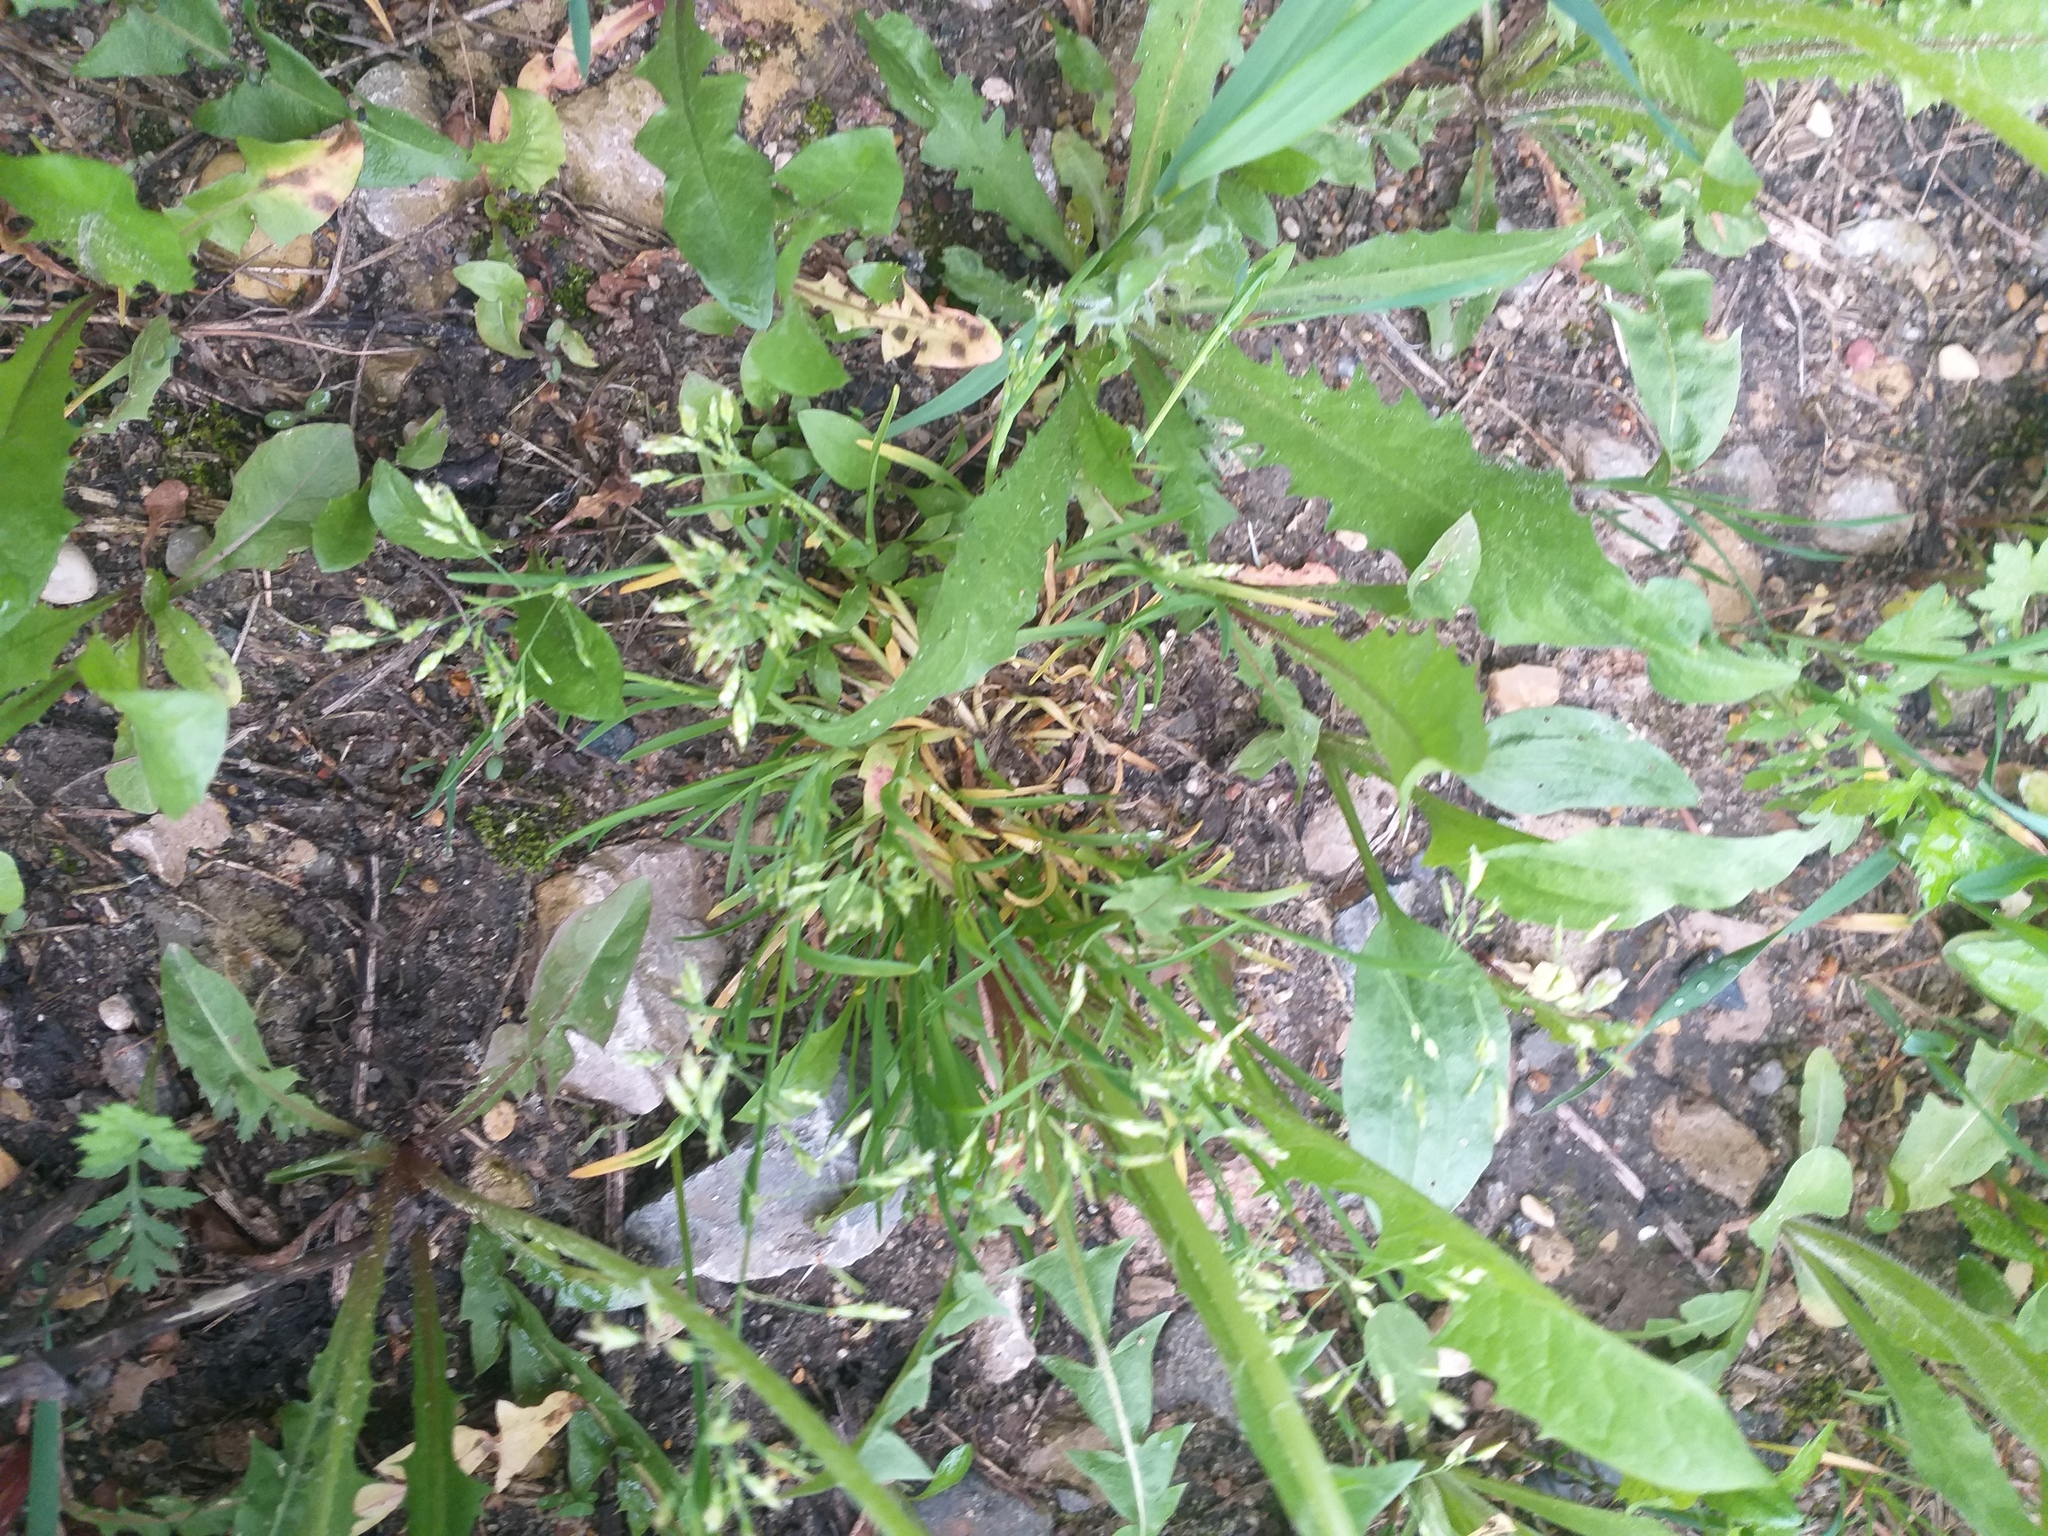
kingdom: Plantae
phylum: Tracheophyta
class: Liliopsida
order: Poales
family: Poaceae
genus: Poa
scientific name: Poa annua
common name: Annual bluegrass
